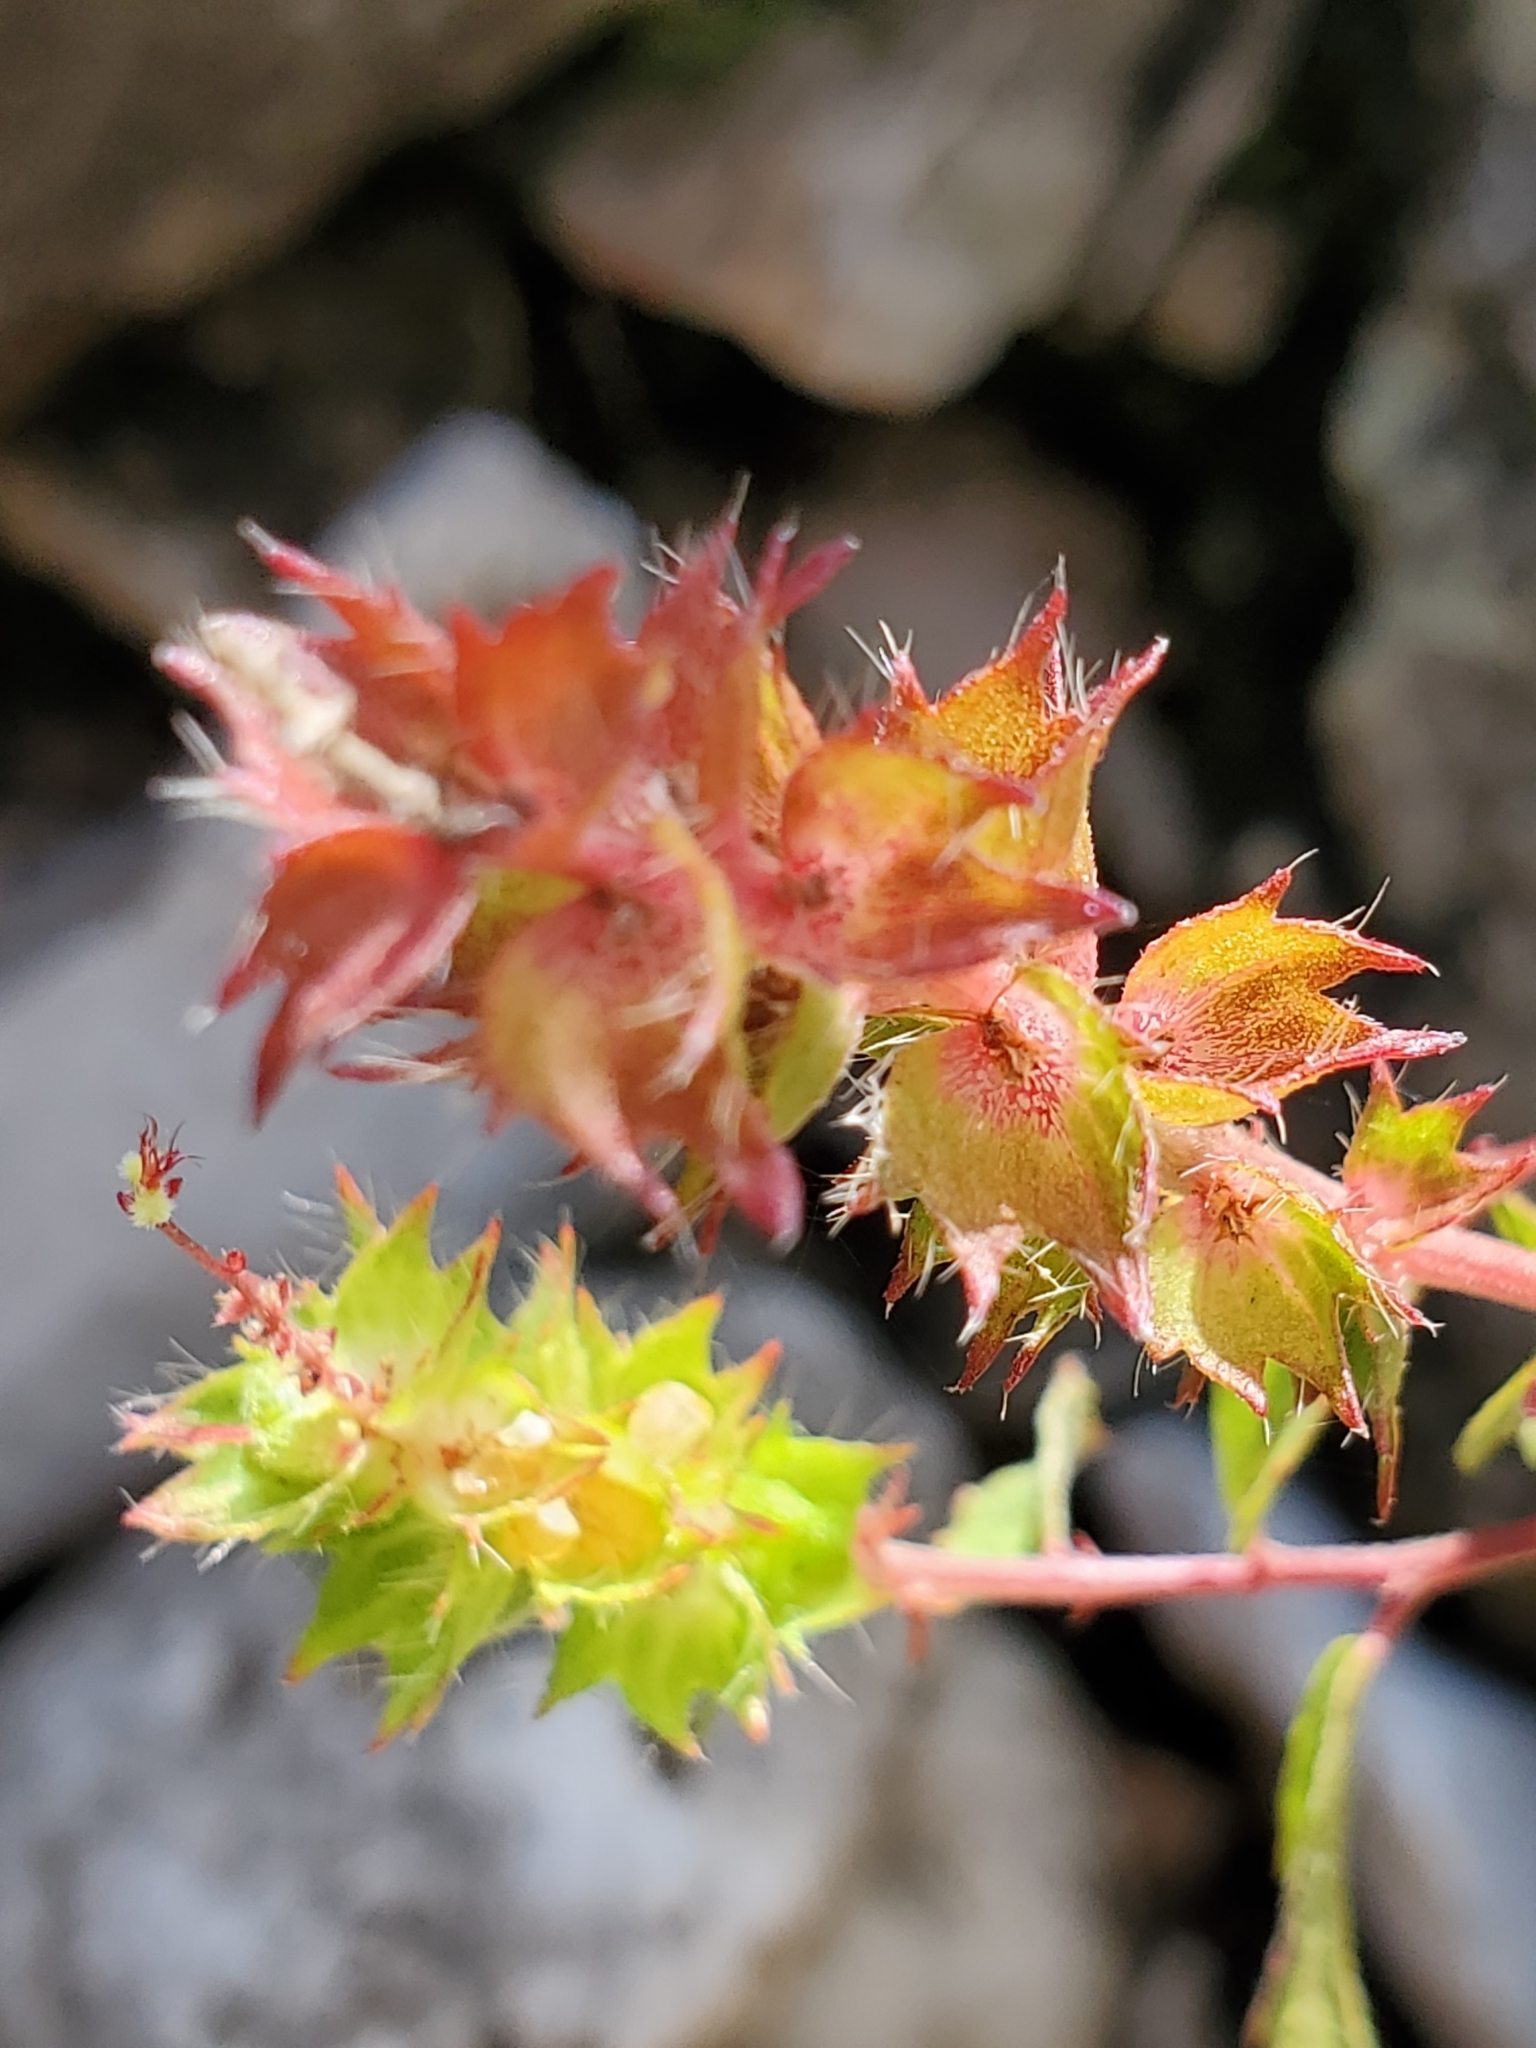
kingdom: Plantae
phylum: Tracheophyta
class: Magnoliopsida
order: Malpighiales
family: Euphorbiaceae
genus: Acalypha
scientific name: Acalypha phleoides
